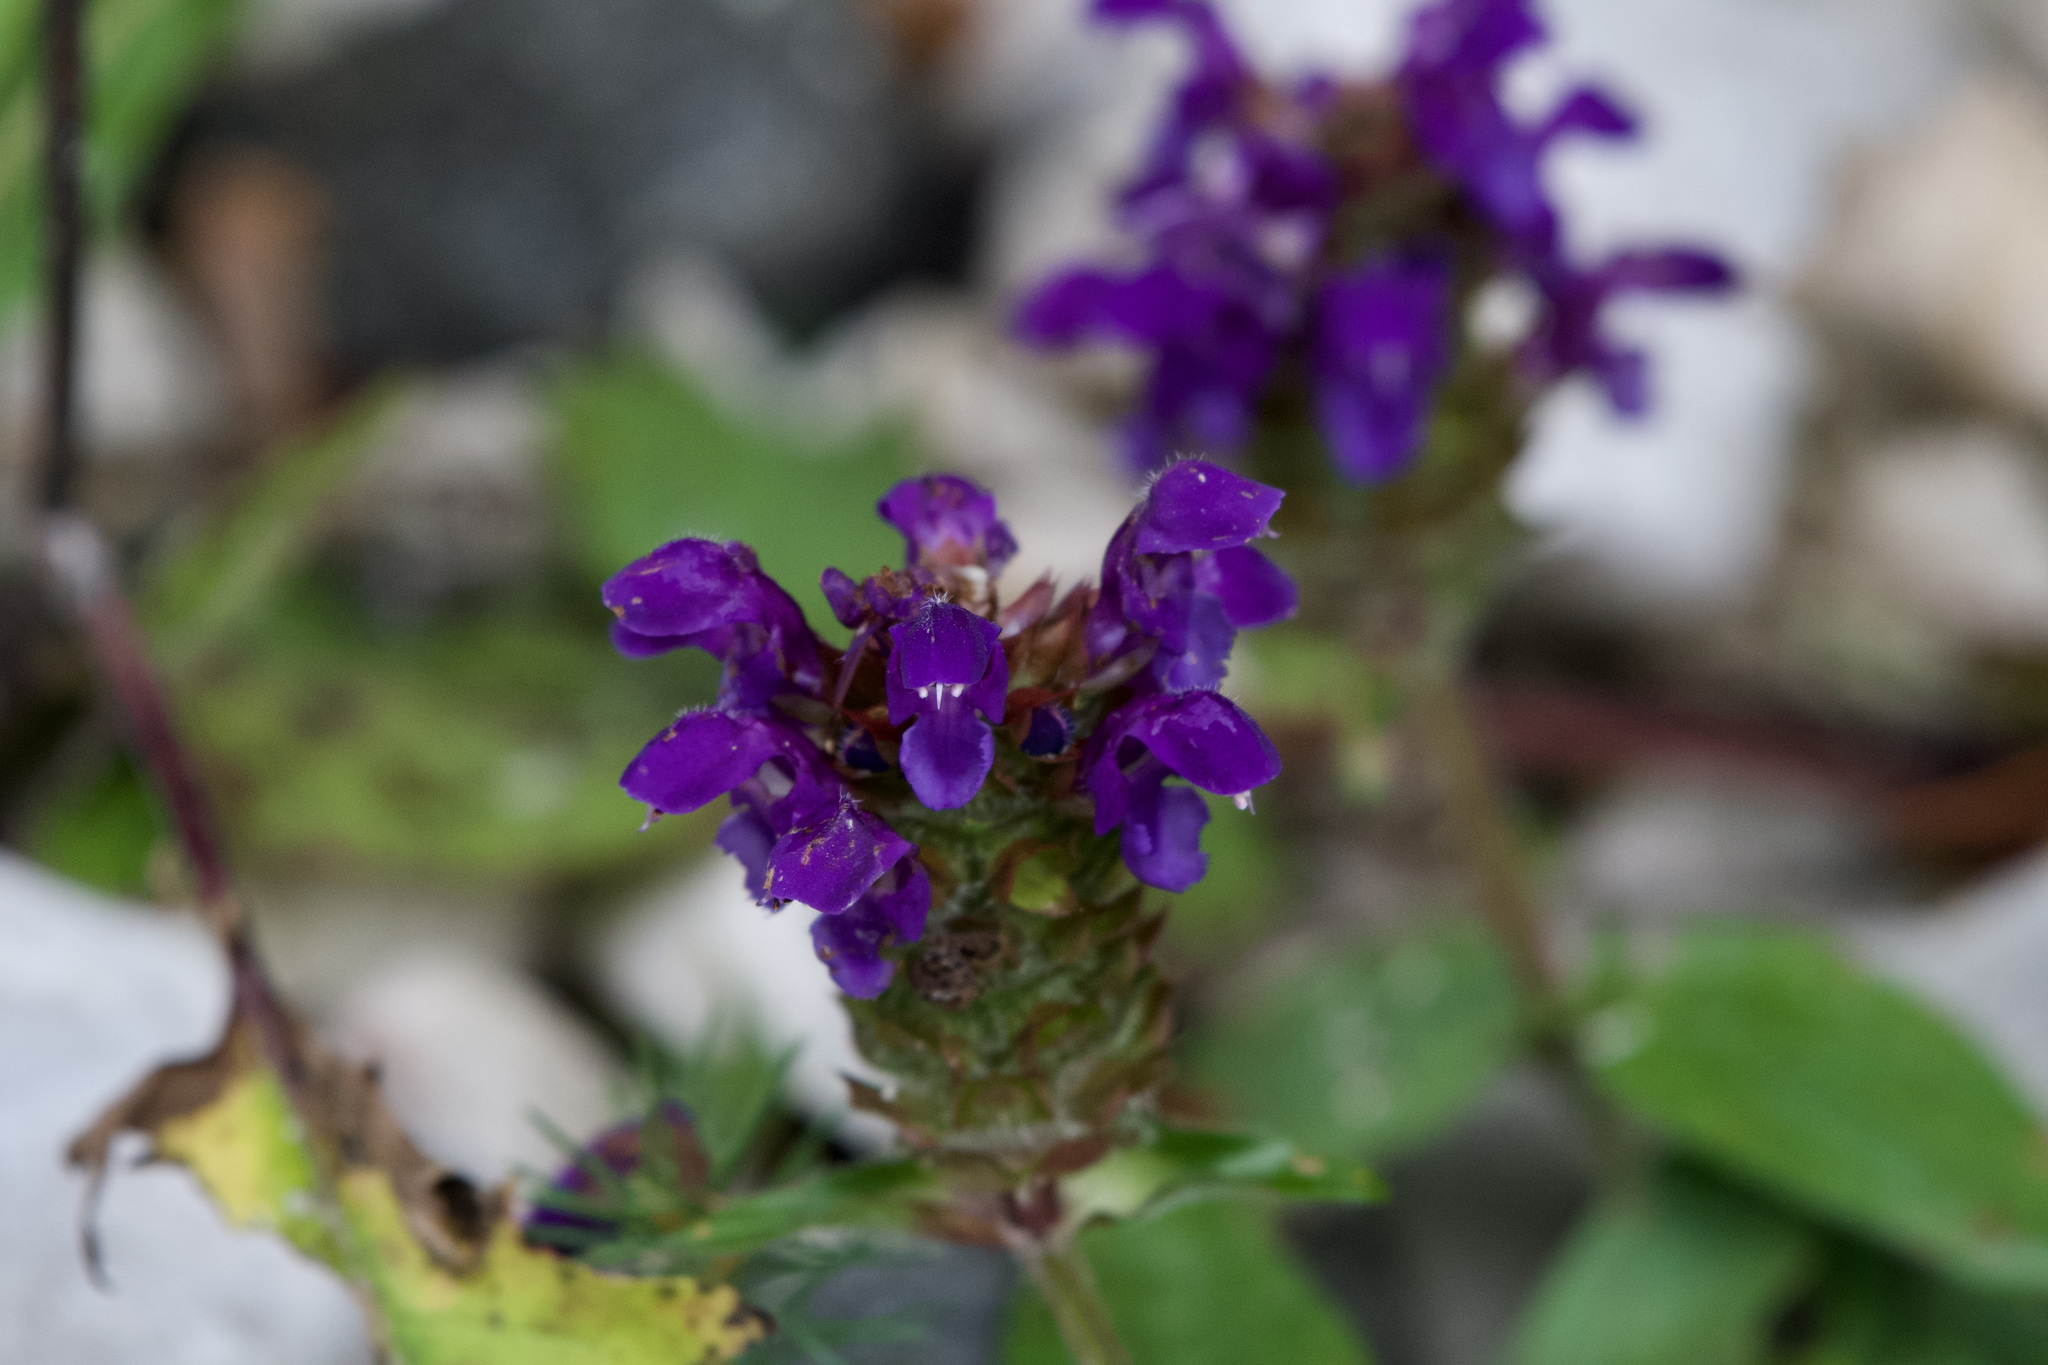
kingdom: Plantae
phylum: Tracheophyta
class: Magnoliopsida
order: Lamiales
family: Lamiaceae
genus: Prunella
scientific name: Prunella vulgaris
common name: Heal-all
